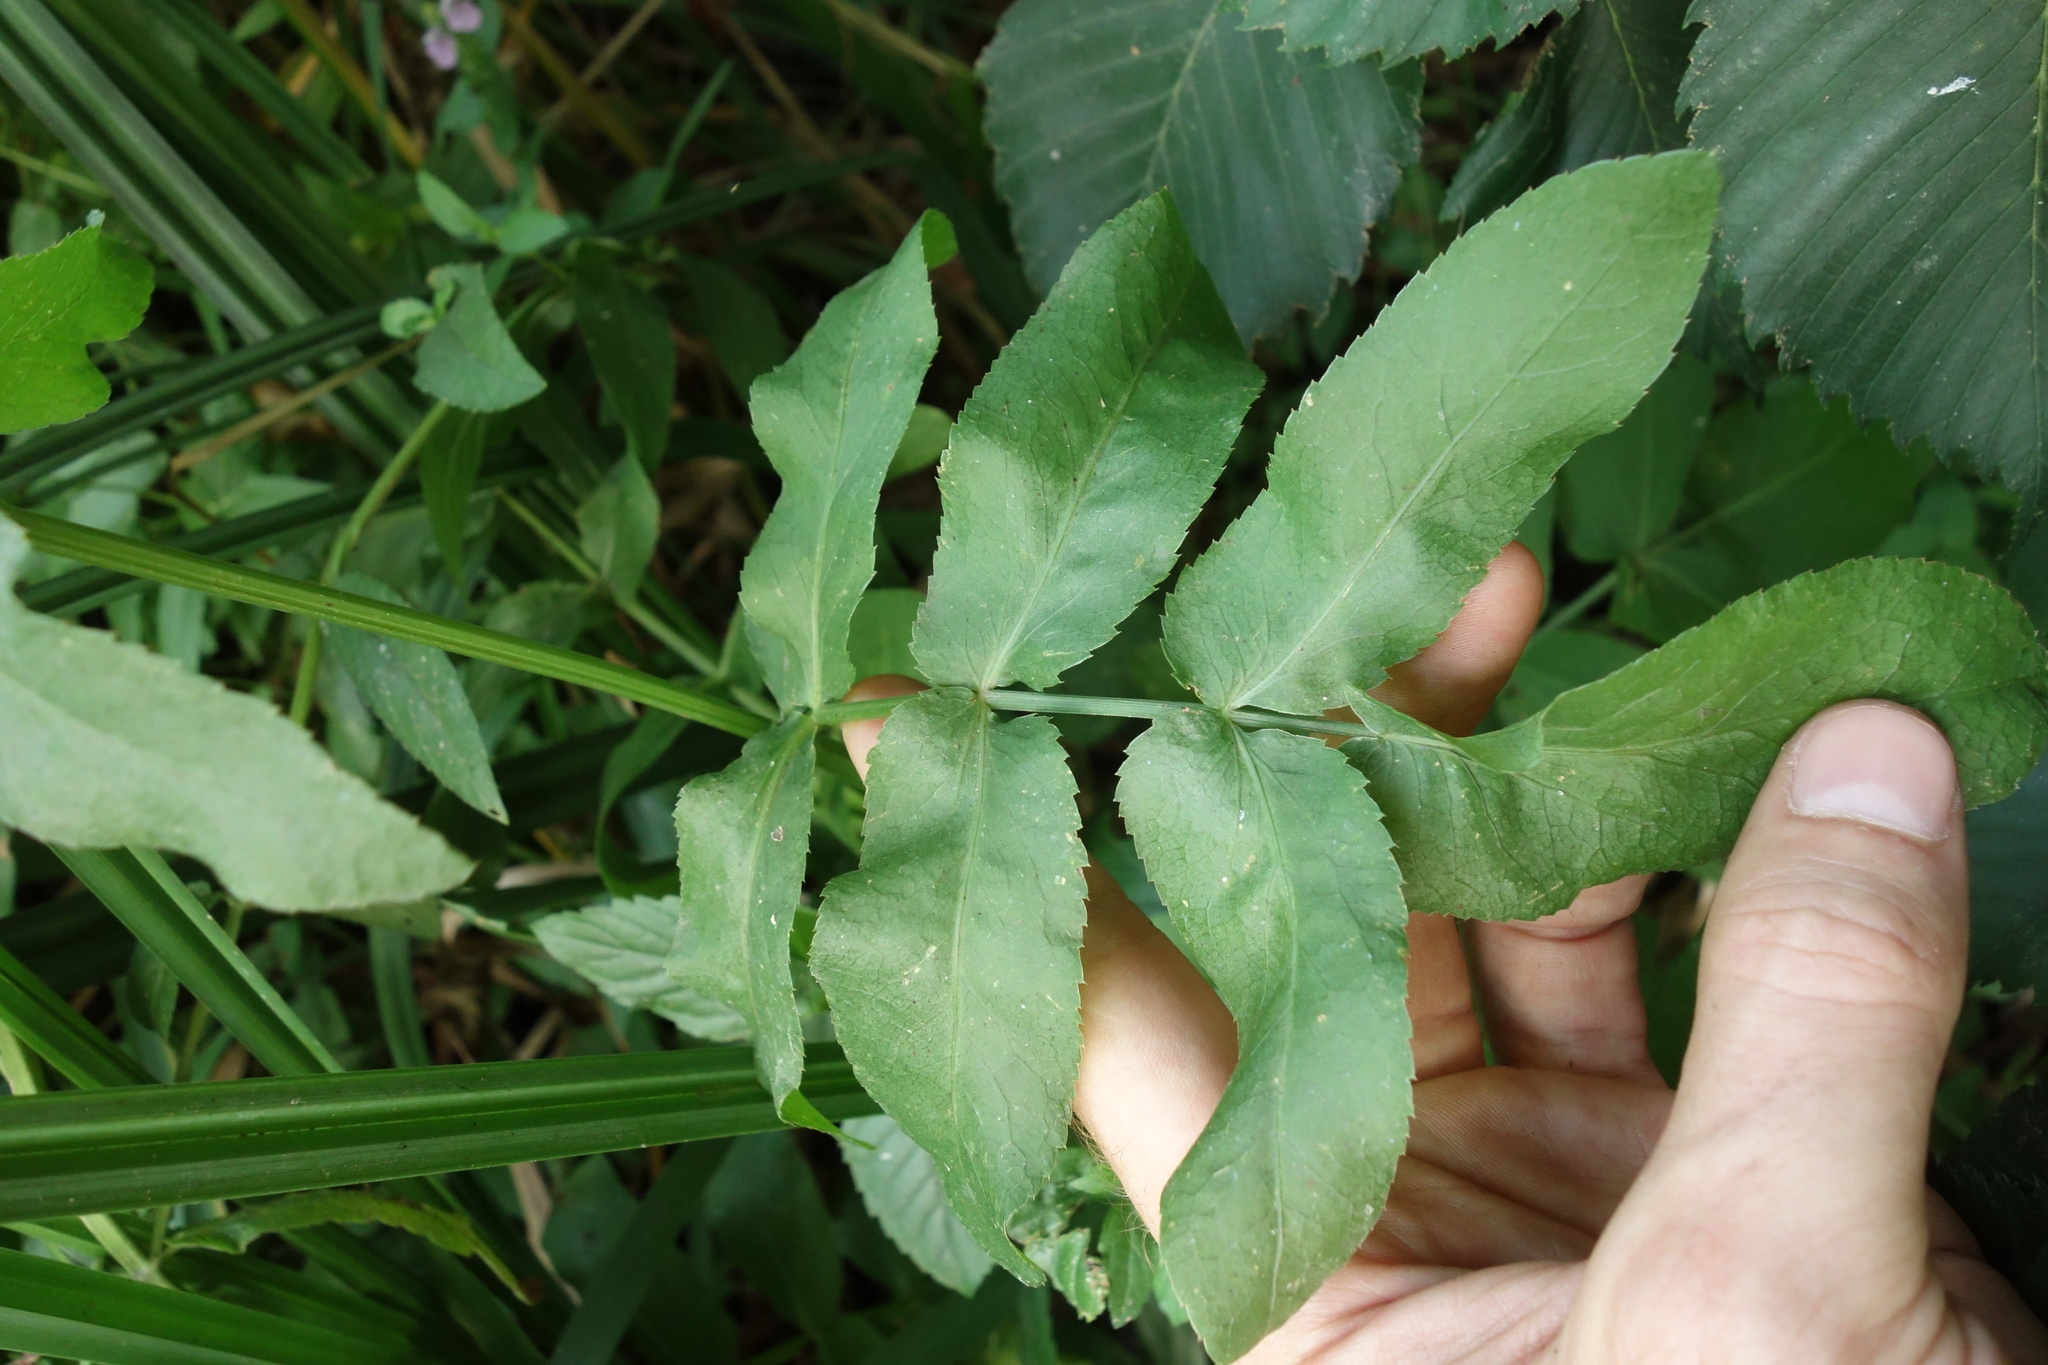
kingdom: Plantae
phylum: Tracheophyta
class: Magnoliopsida
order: Apiales
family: Apiaceae
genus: Sium
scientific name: Sium latifolium
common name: Greater water-parsnip
